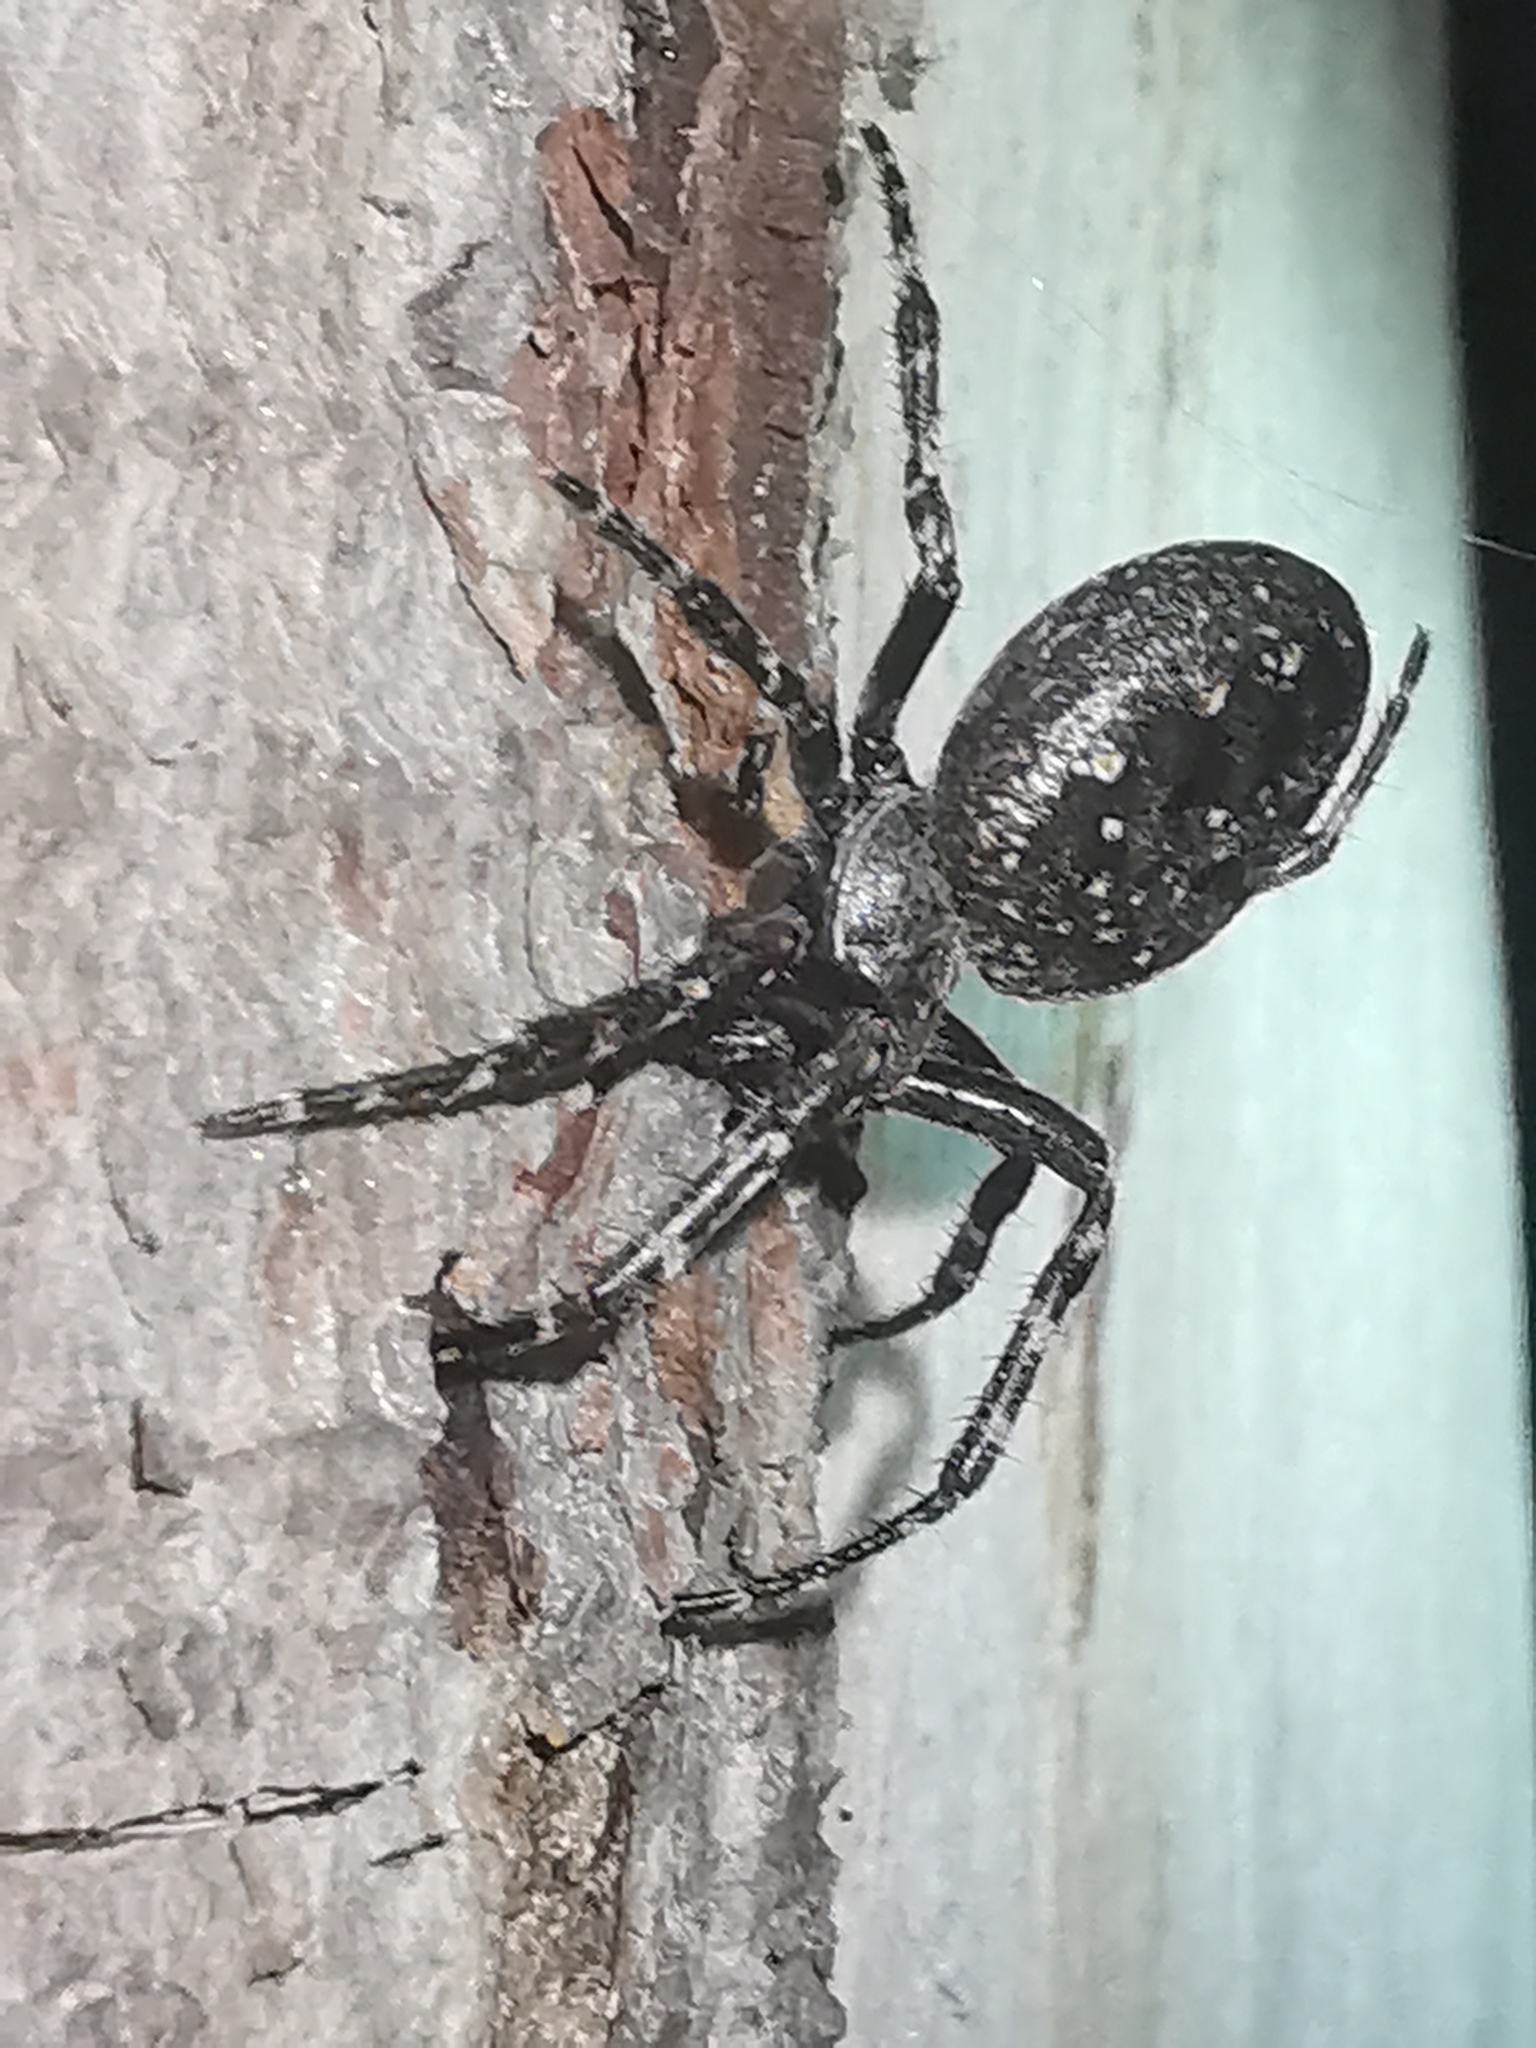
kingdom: Animalia
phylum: Arthropoda
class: Arachnida
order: Araneae
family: Araneidae
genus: Nuctenea
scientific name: Nuctenea umbratica
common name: Toad spider
